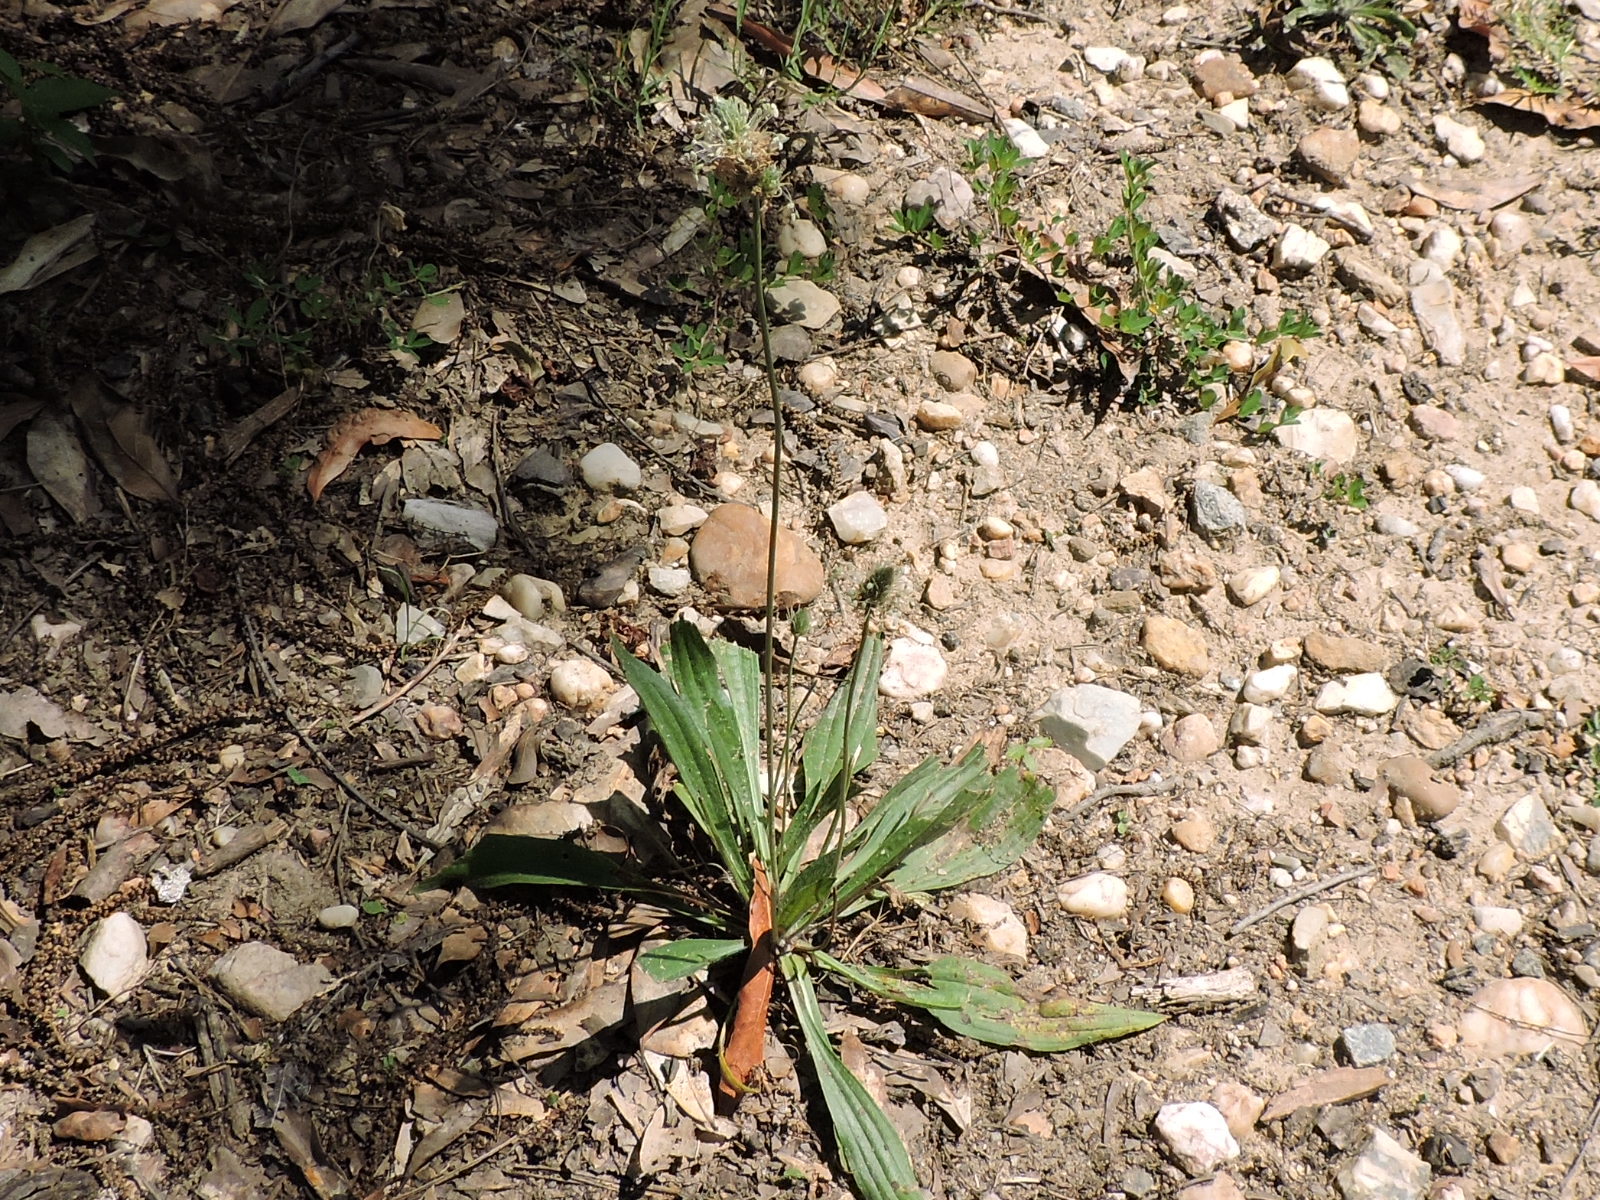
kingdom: Plantae
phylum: Tracheophyta
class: Magnoliopsida
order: Lamiales
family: Plantaginaceae
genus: Plantago
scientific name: Plantago lanceolata
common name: Ribwort plantain
